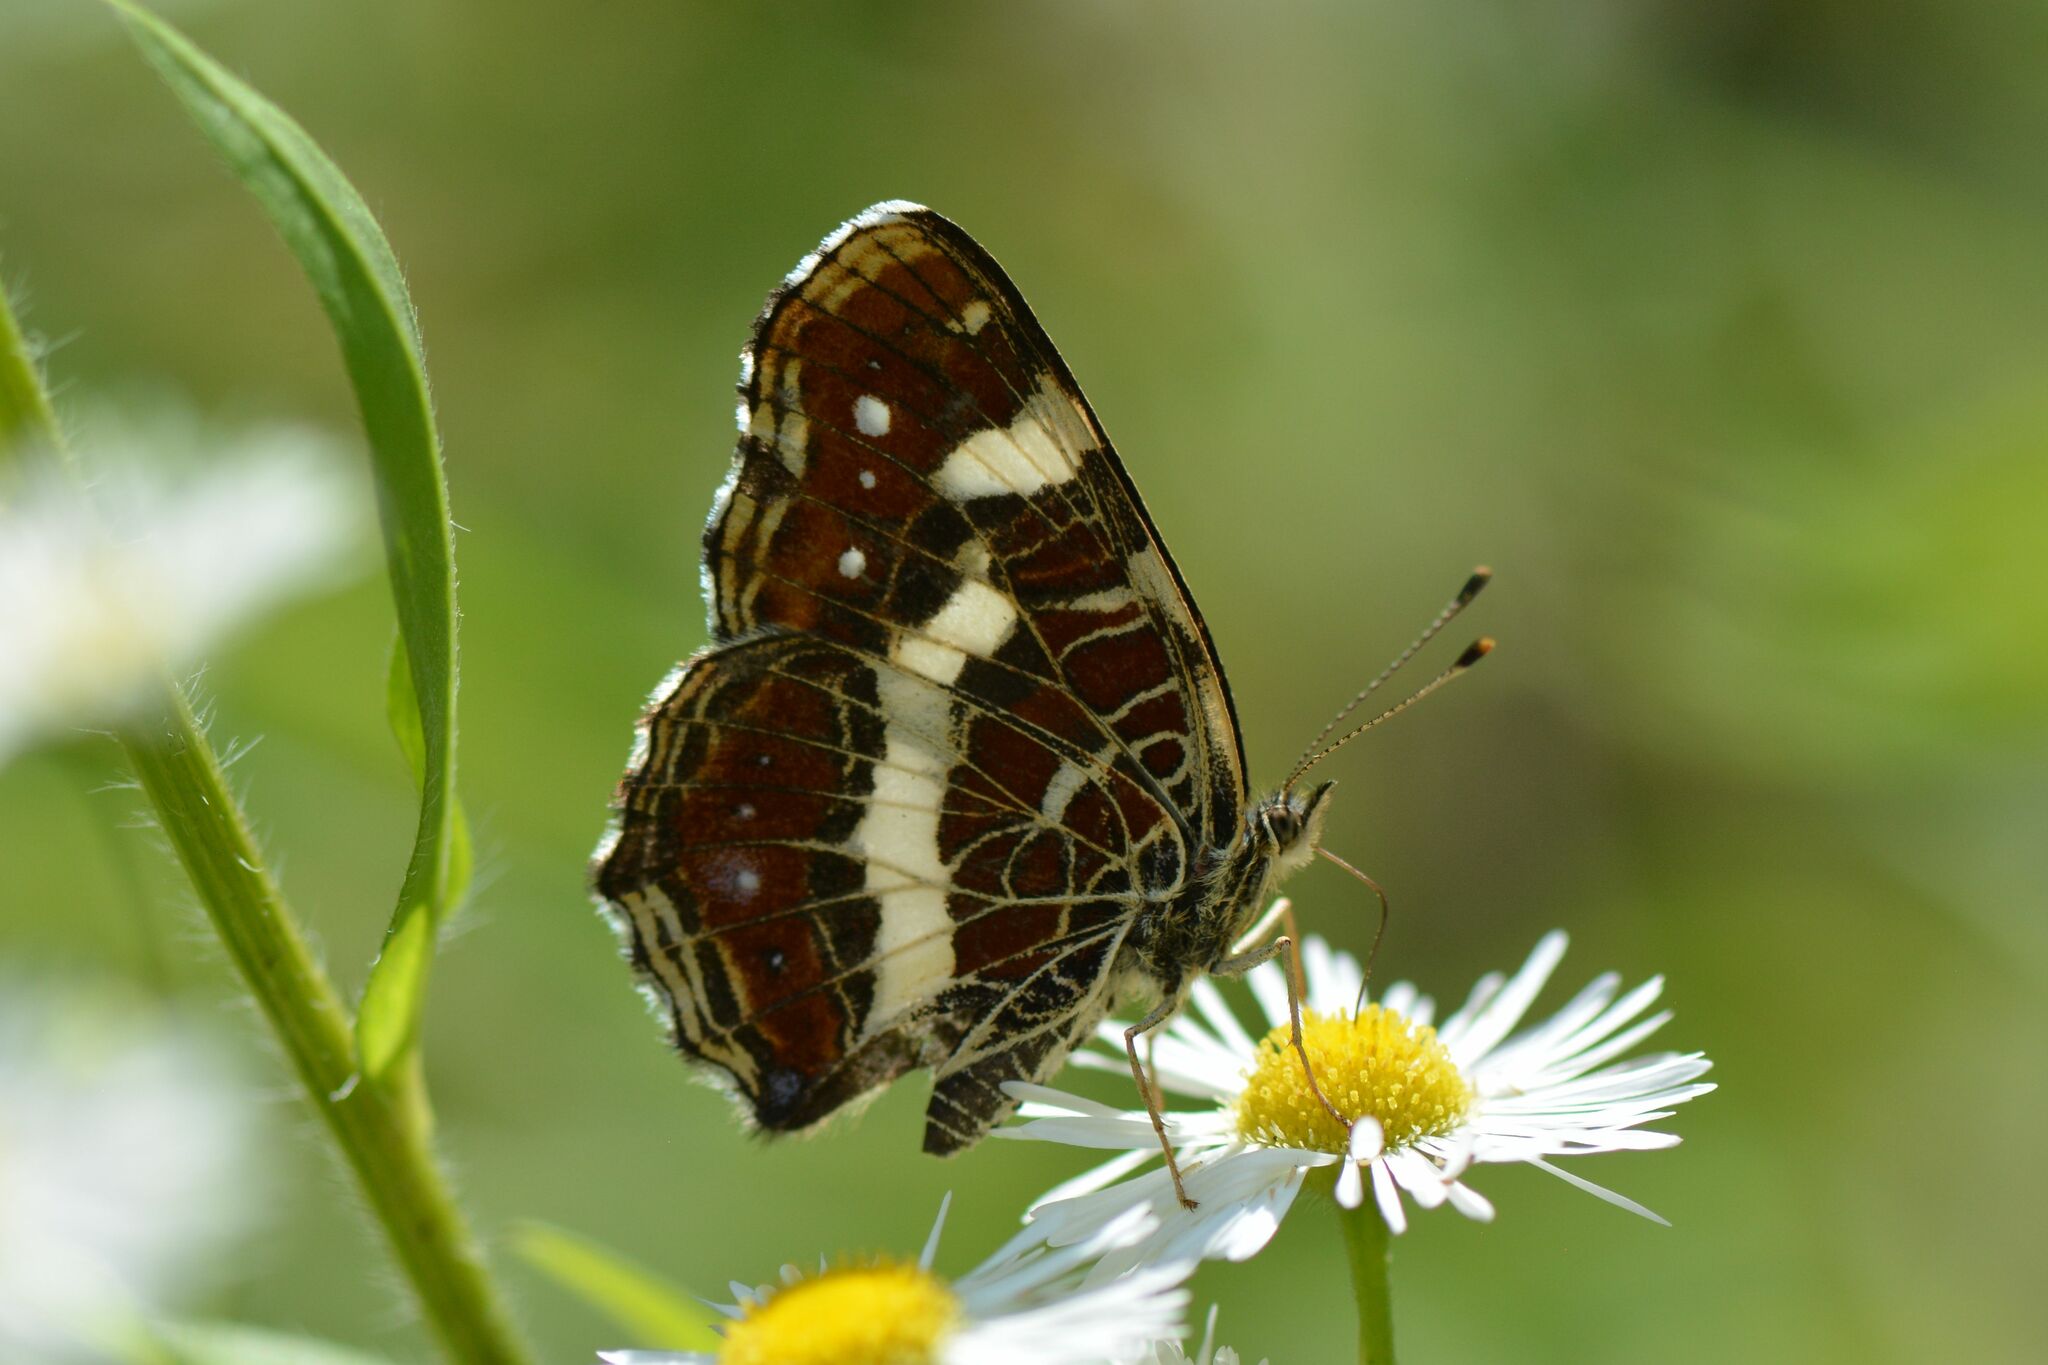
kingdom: Animalia
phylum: Arthropoda
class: Insecta
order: Lepidoptera
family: Nymphalidae
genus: Araschnia
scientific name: Araschnia levana
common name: Map butterfly
